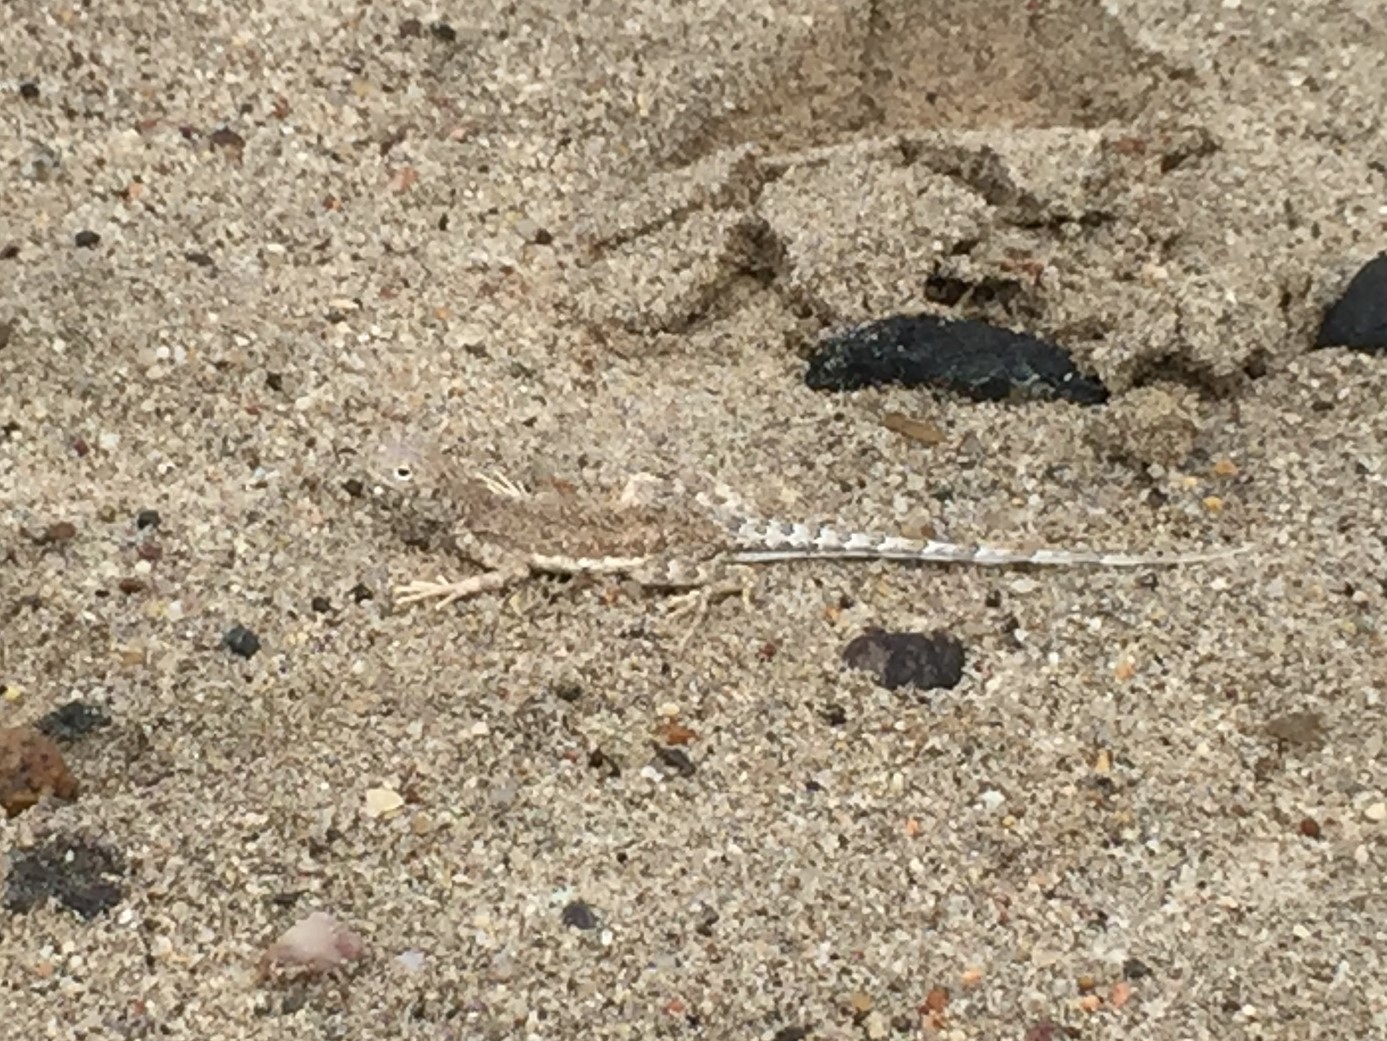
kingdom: Animalia
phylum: Chordata
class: Squamata
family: Phrynosomatidae
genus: Callisaurus
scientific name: Callisaurus draconoides
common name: Zebra-tailed lizard
